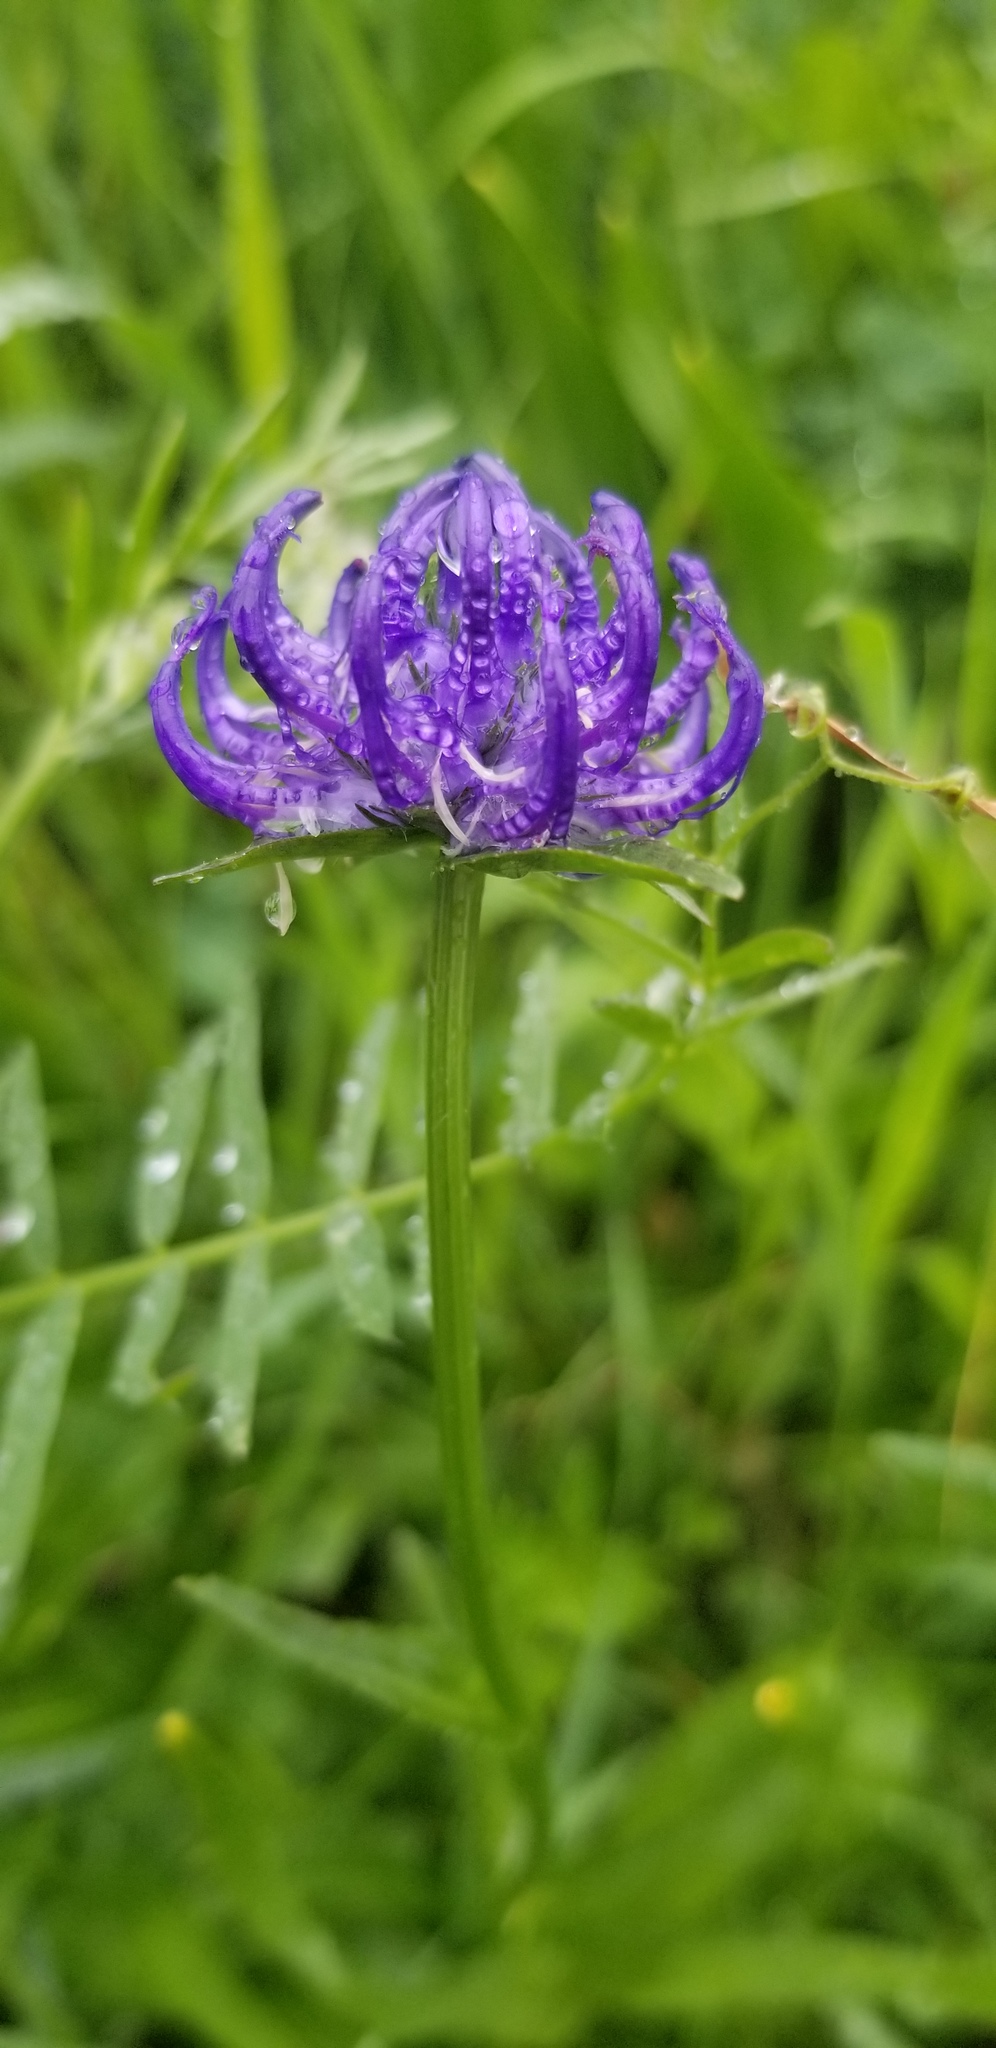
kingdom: Plantae
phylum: Tracheophyta
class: Magnoliopsida
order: Asterales
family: Campanulaceae
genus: Phyteuma
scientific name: Phyteuma orbiculare
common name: Round-headed rampion
